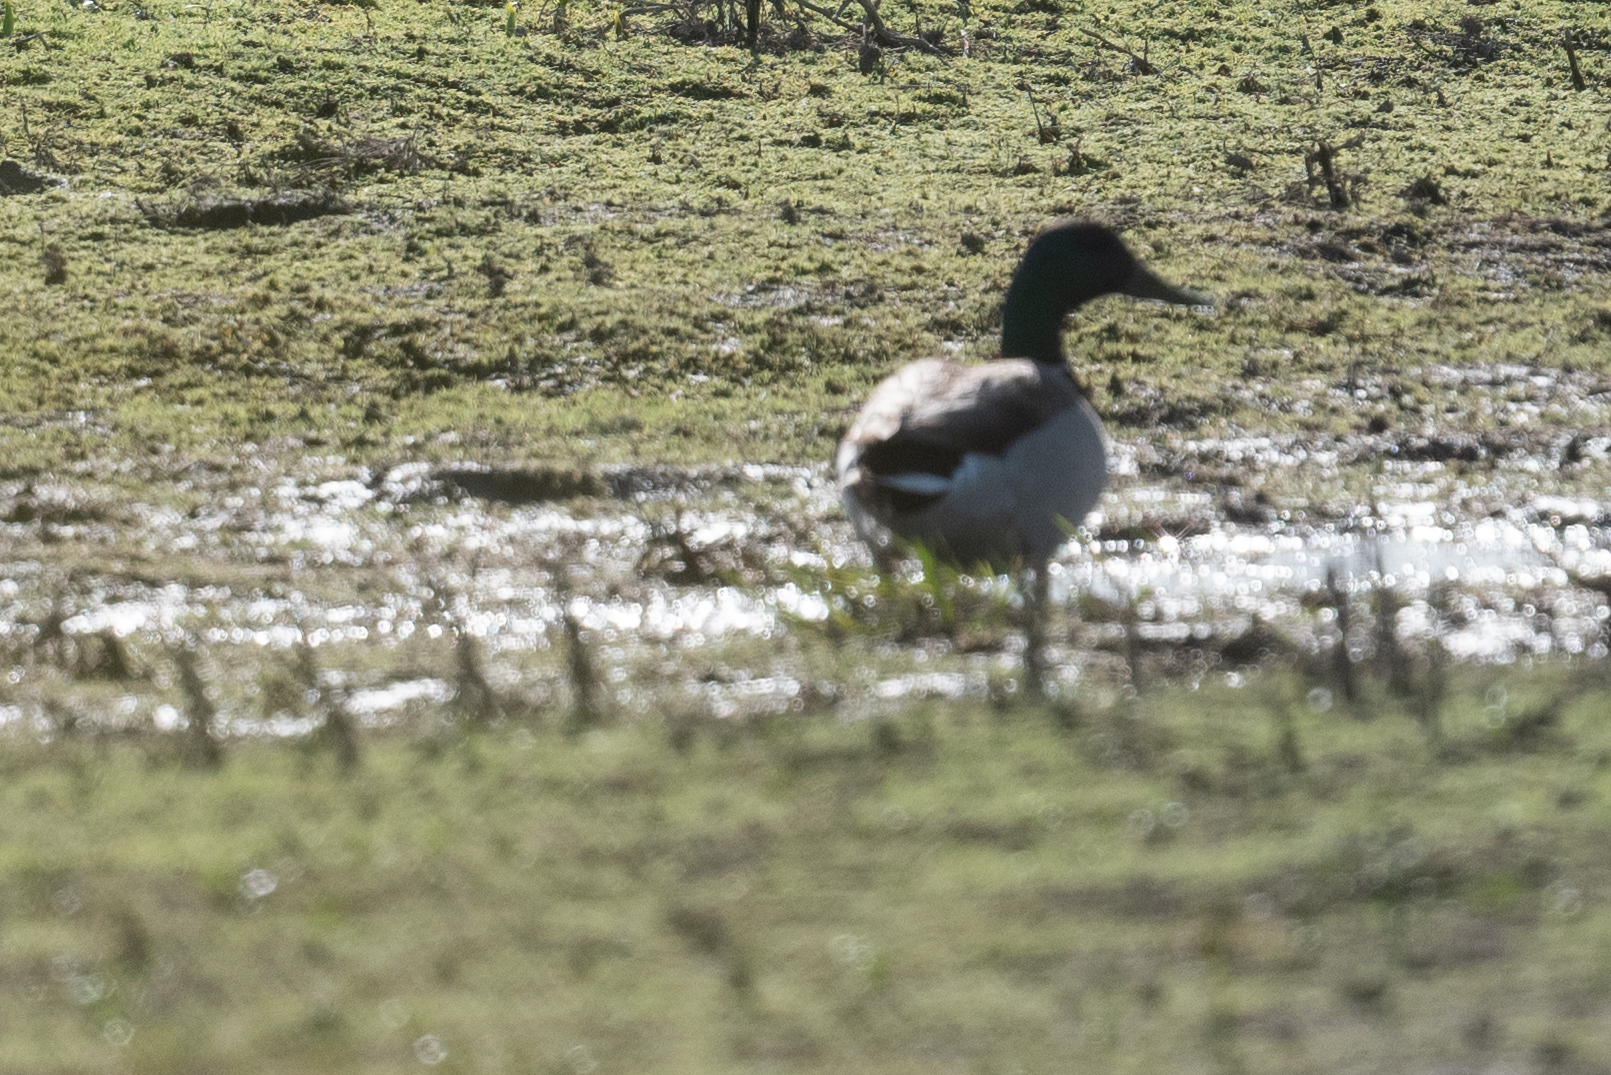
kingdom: Animalia
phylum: Chordata
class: Aves
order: Anseriformes
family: Anatidae
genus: Anas
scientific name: Anas platyrhynchos
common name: Mallard
